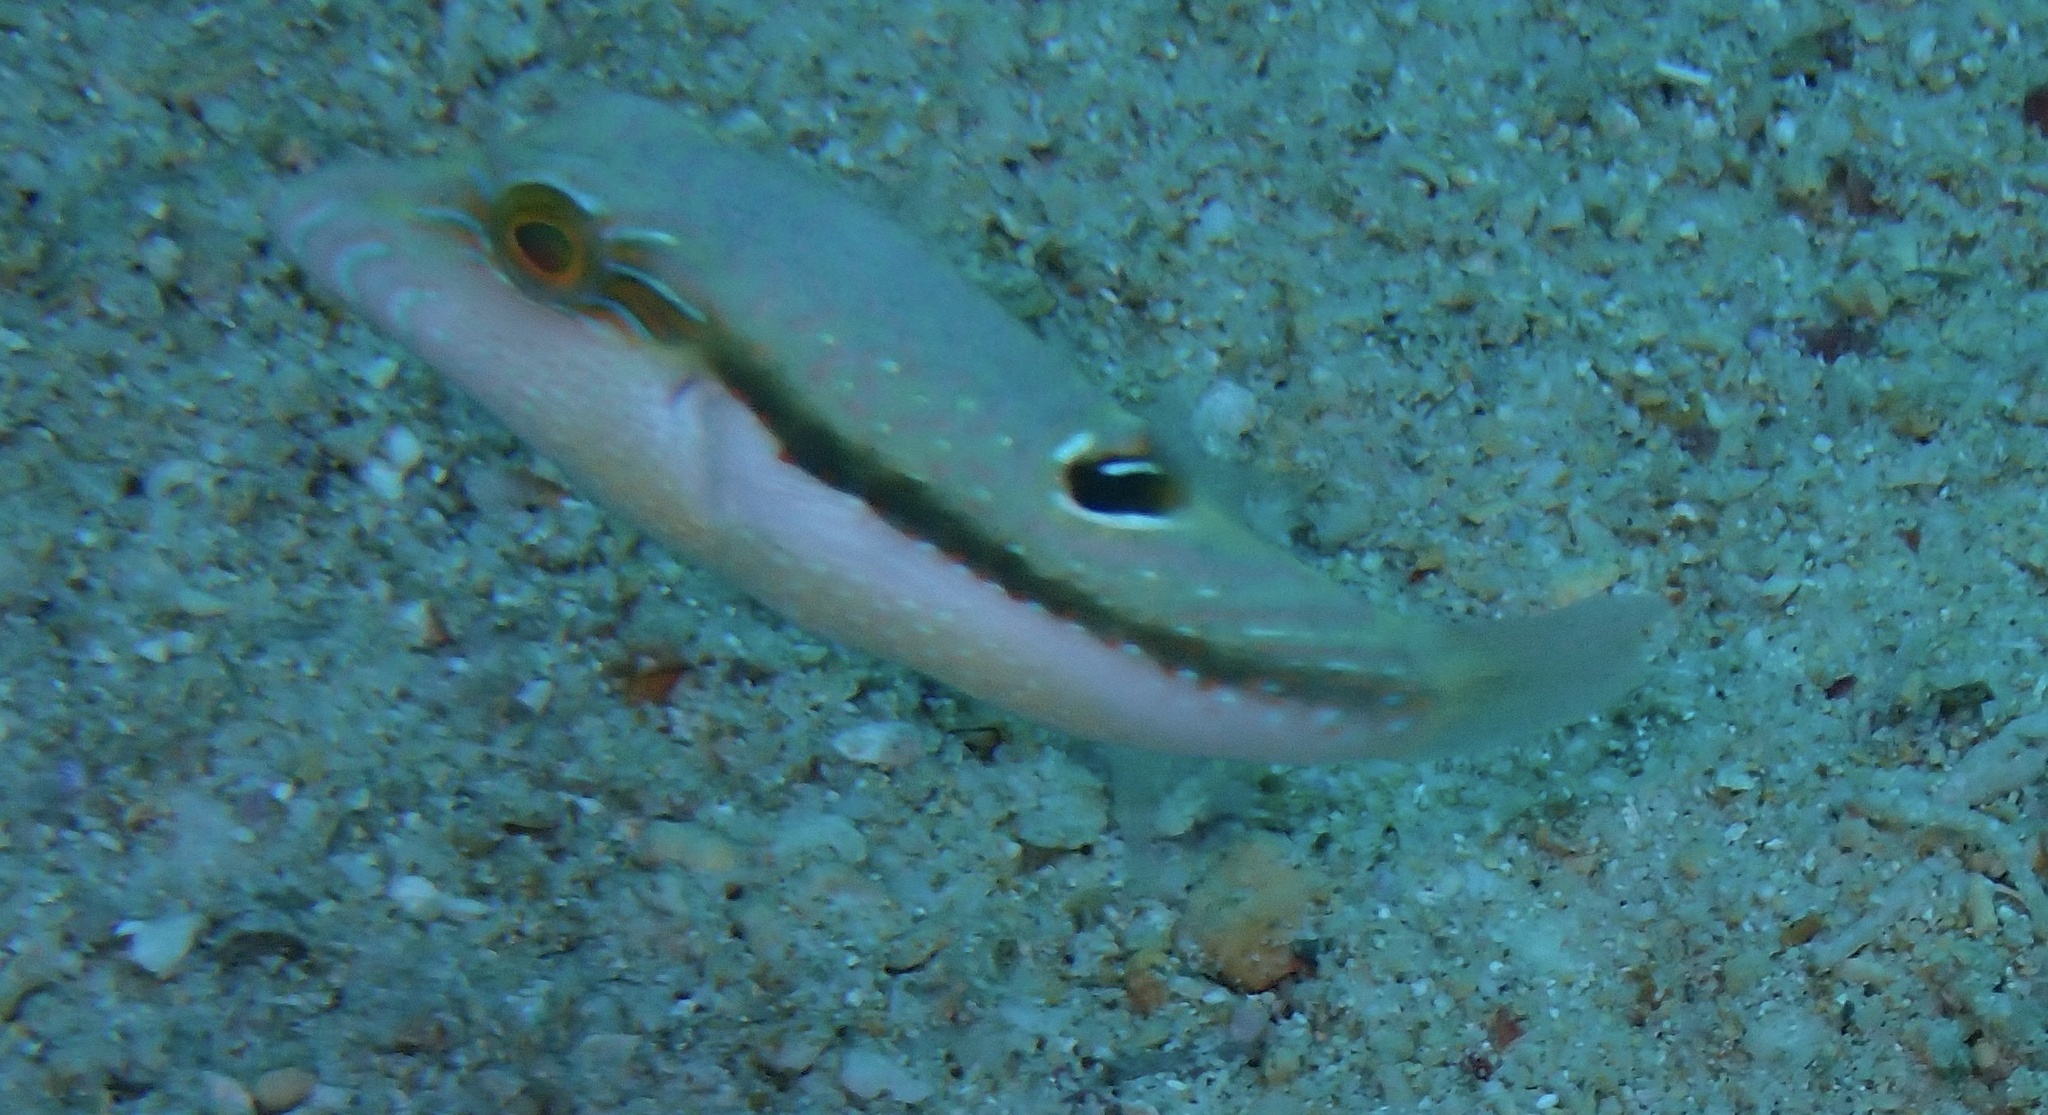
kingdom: Animalia
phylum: Chordata
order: Tetraodontiformes
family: Tetraodontidae
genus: Canthigaster
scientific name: Canthigaster bennetti
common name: Bennett's pufferfish
